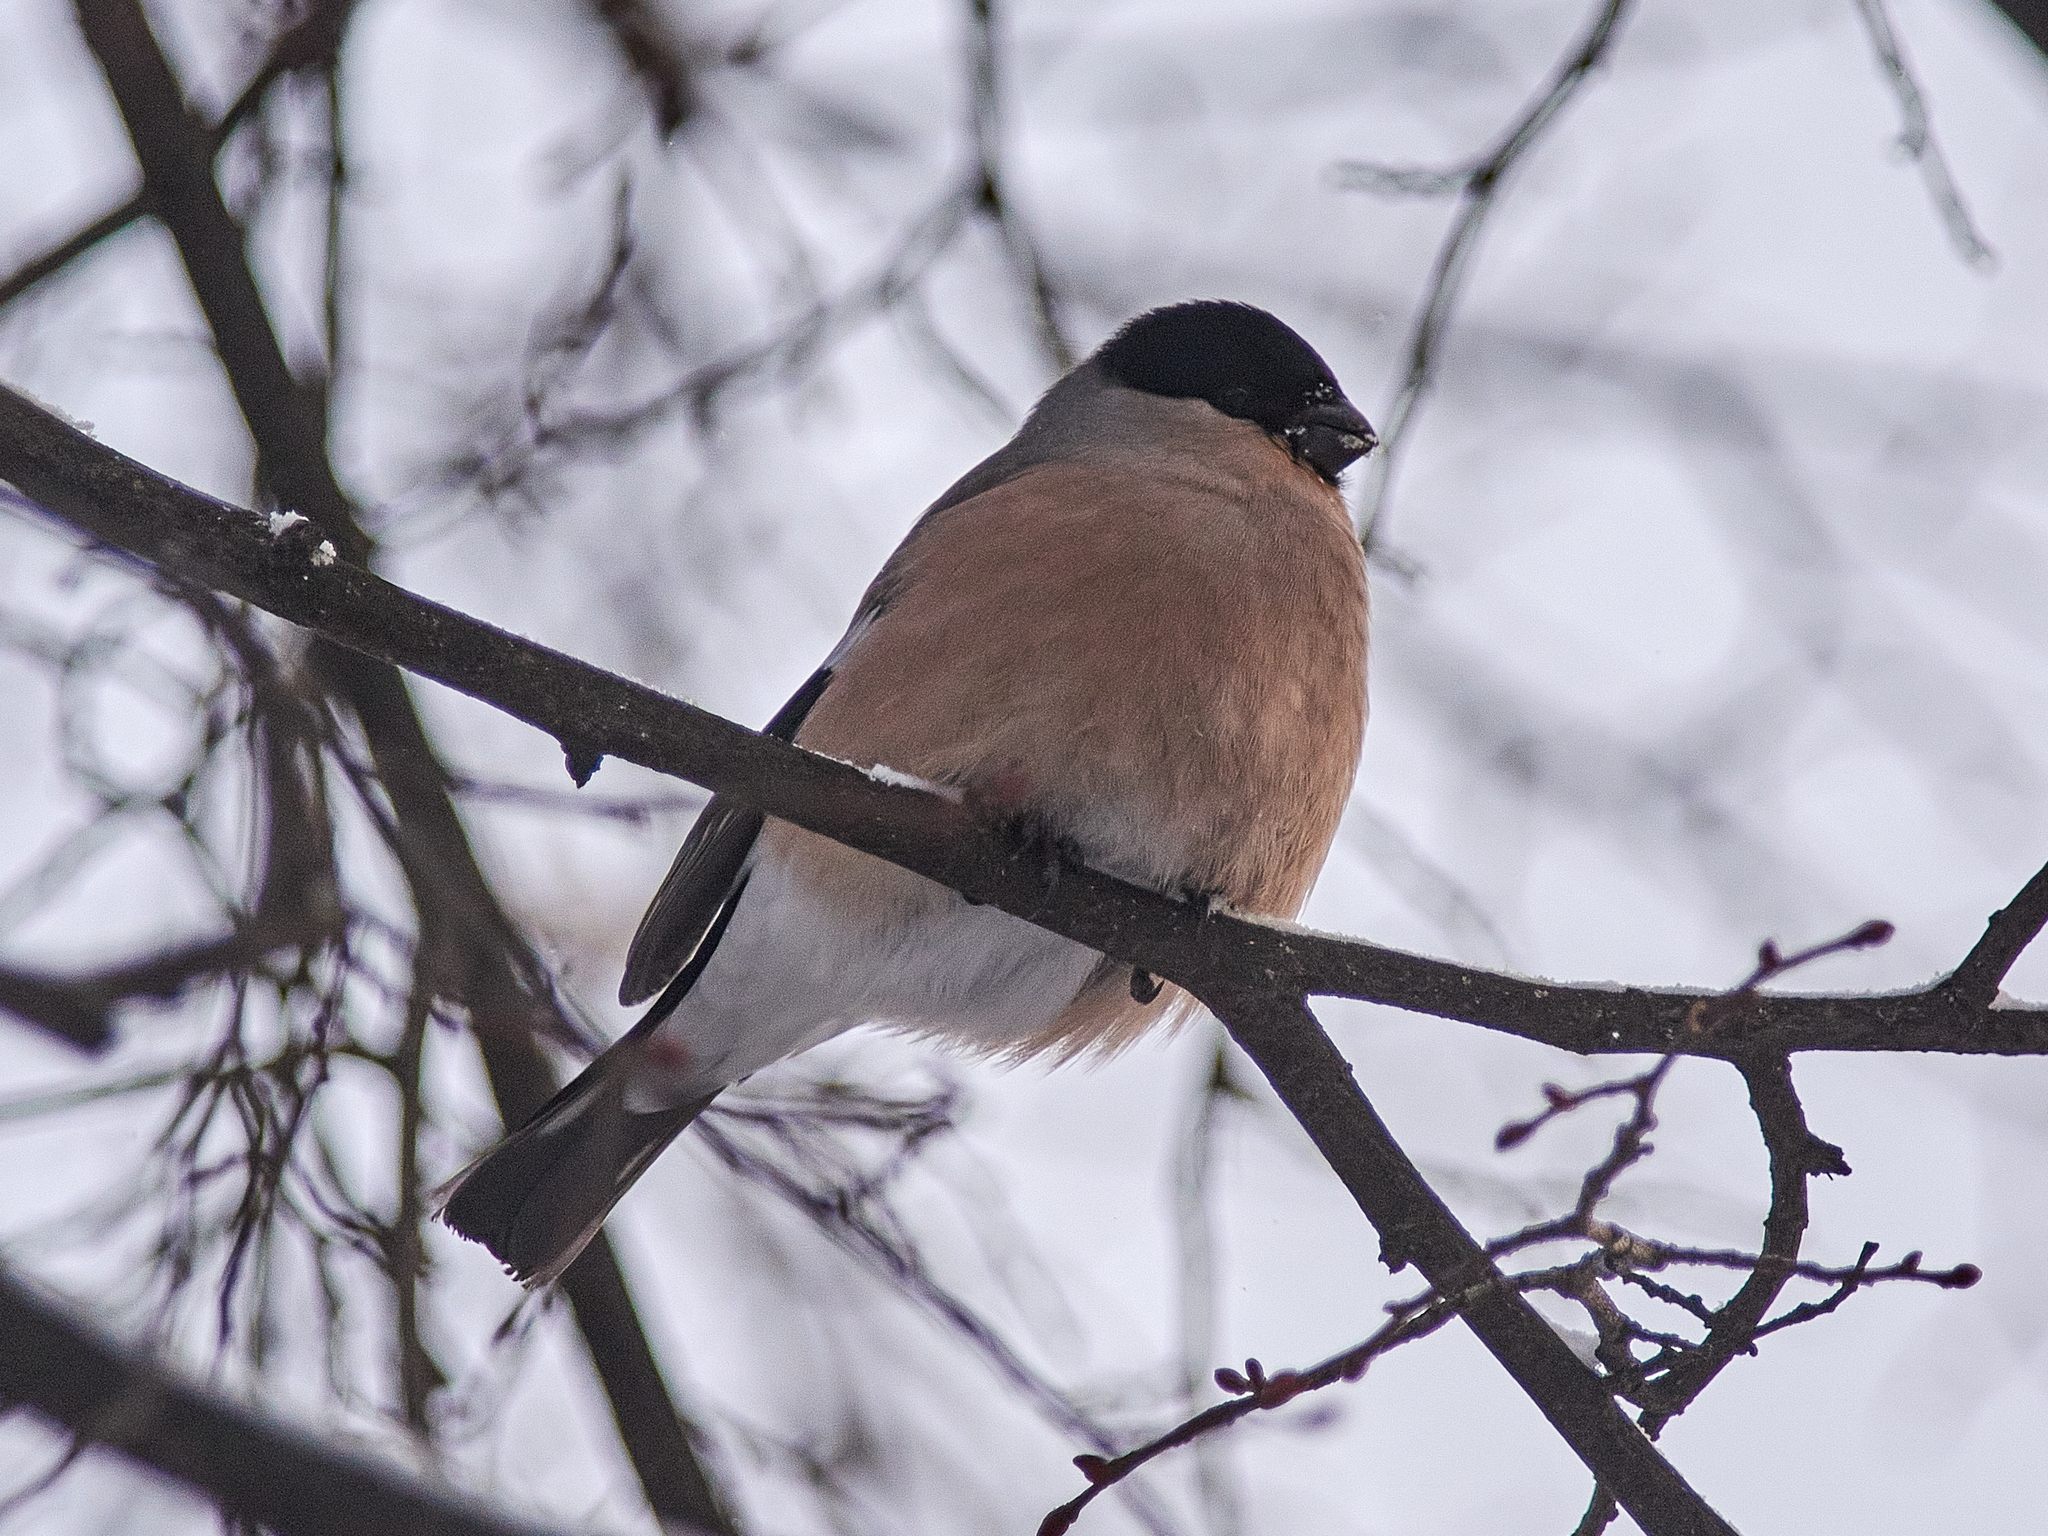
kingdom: Animalia
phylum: Chordata
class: Aves
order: Passeriformes
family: Fringillidae
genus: Pyrrhula
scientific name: Pyrrhula pyrrhula
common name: Eurasian bullfinch
